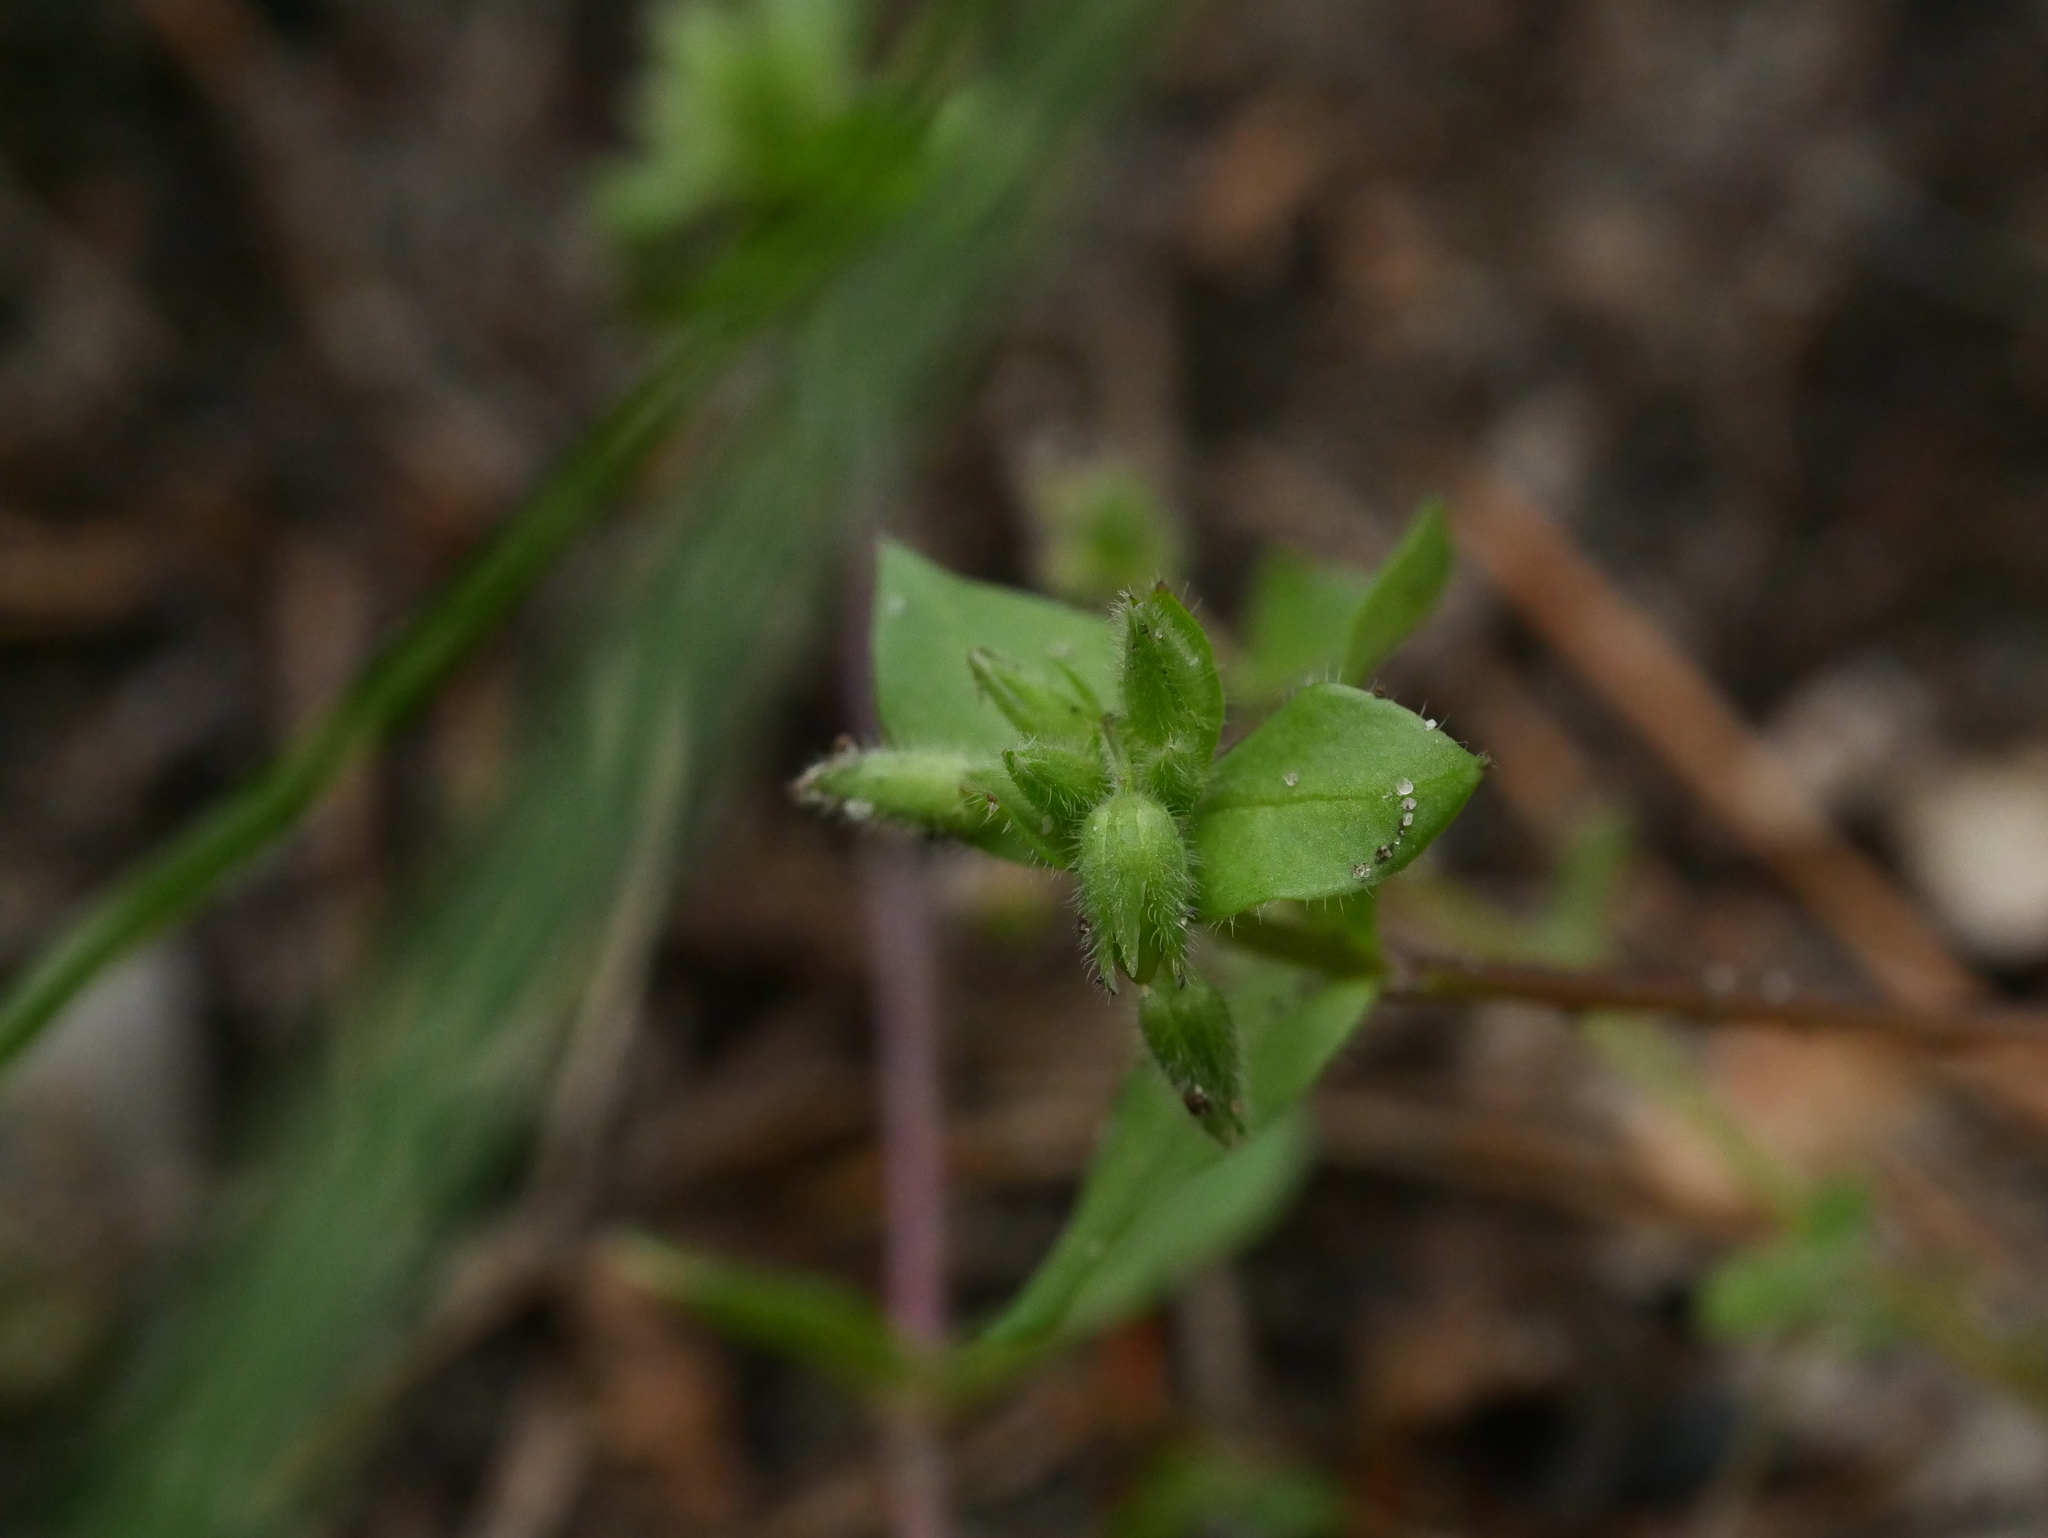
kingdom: Plantae
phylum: Tracheophyta
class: Magnoliopsida
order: Caryophyllales
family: Caryophyllaceae
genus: Stellaria
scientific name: Stellaria media
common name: Common chickweed
